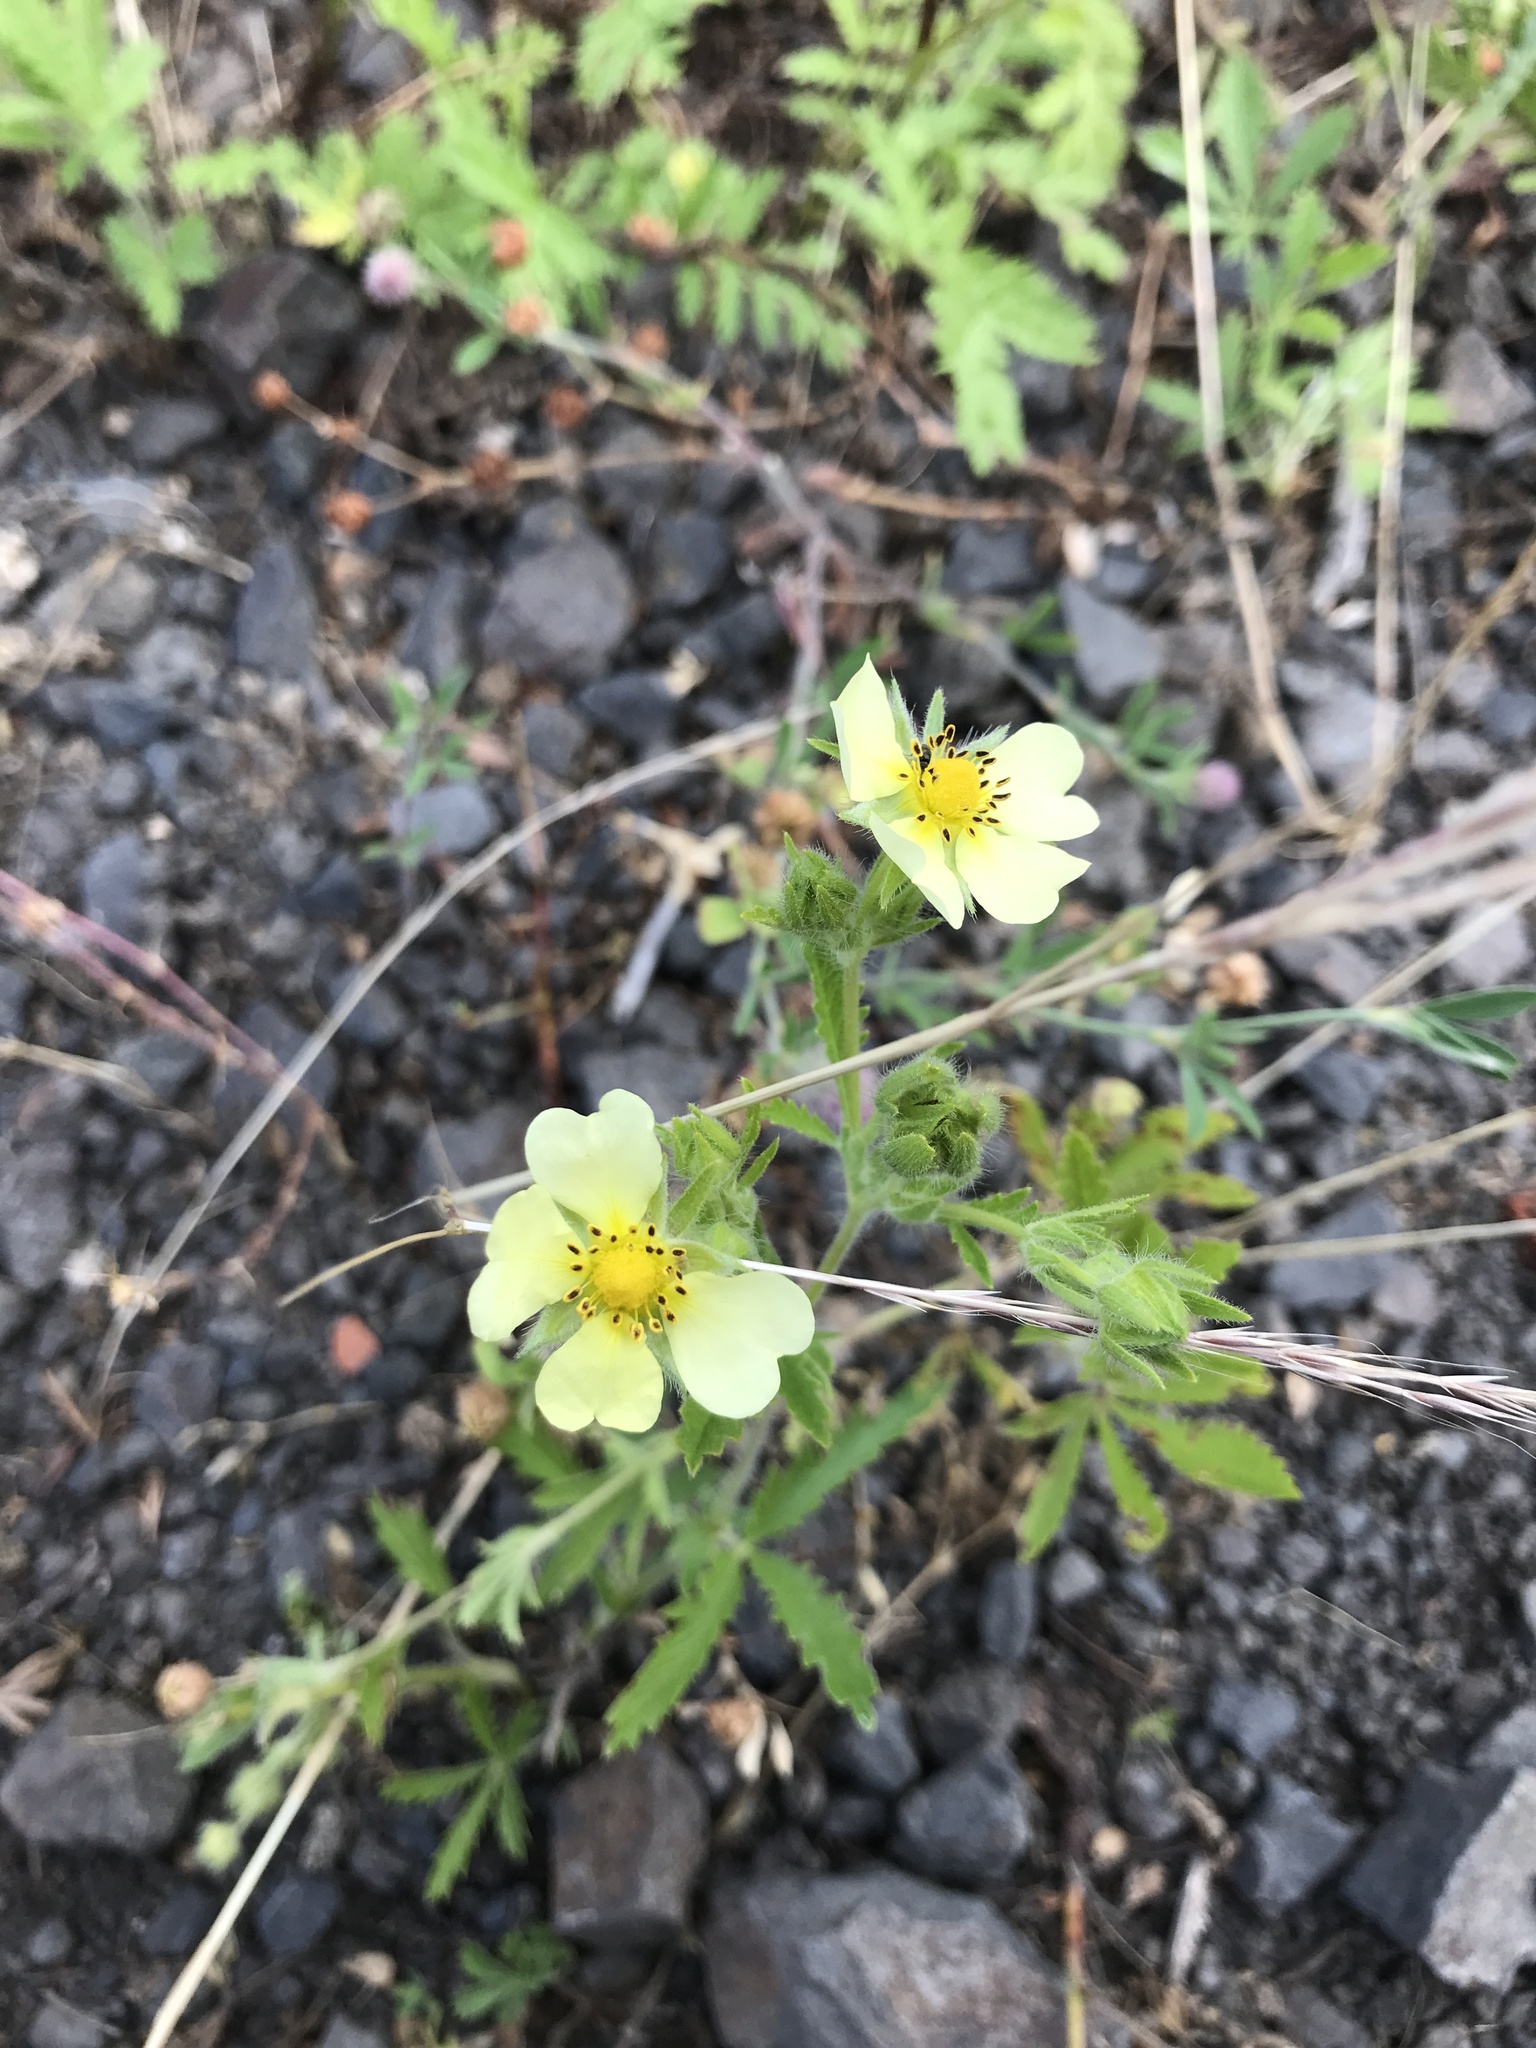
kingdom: Plantae
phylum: Tracheophyta
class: Magnoliopsida
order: Rosales
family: Rosaceae
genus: Potentilla
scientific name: Potentilla recta
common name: Sulphur cinquefoil
